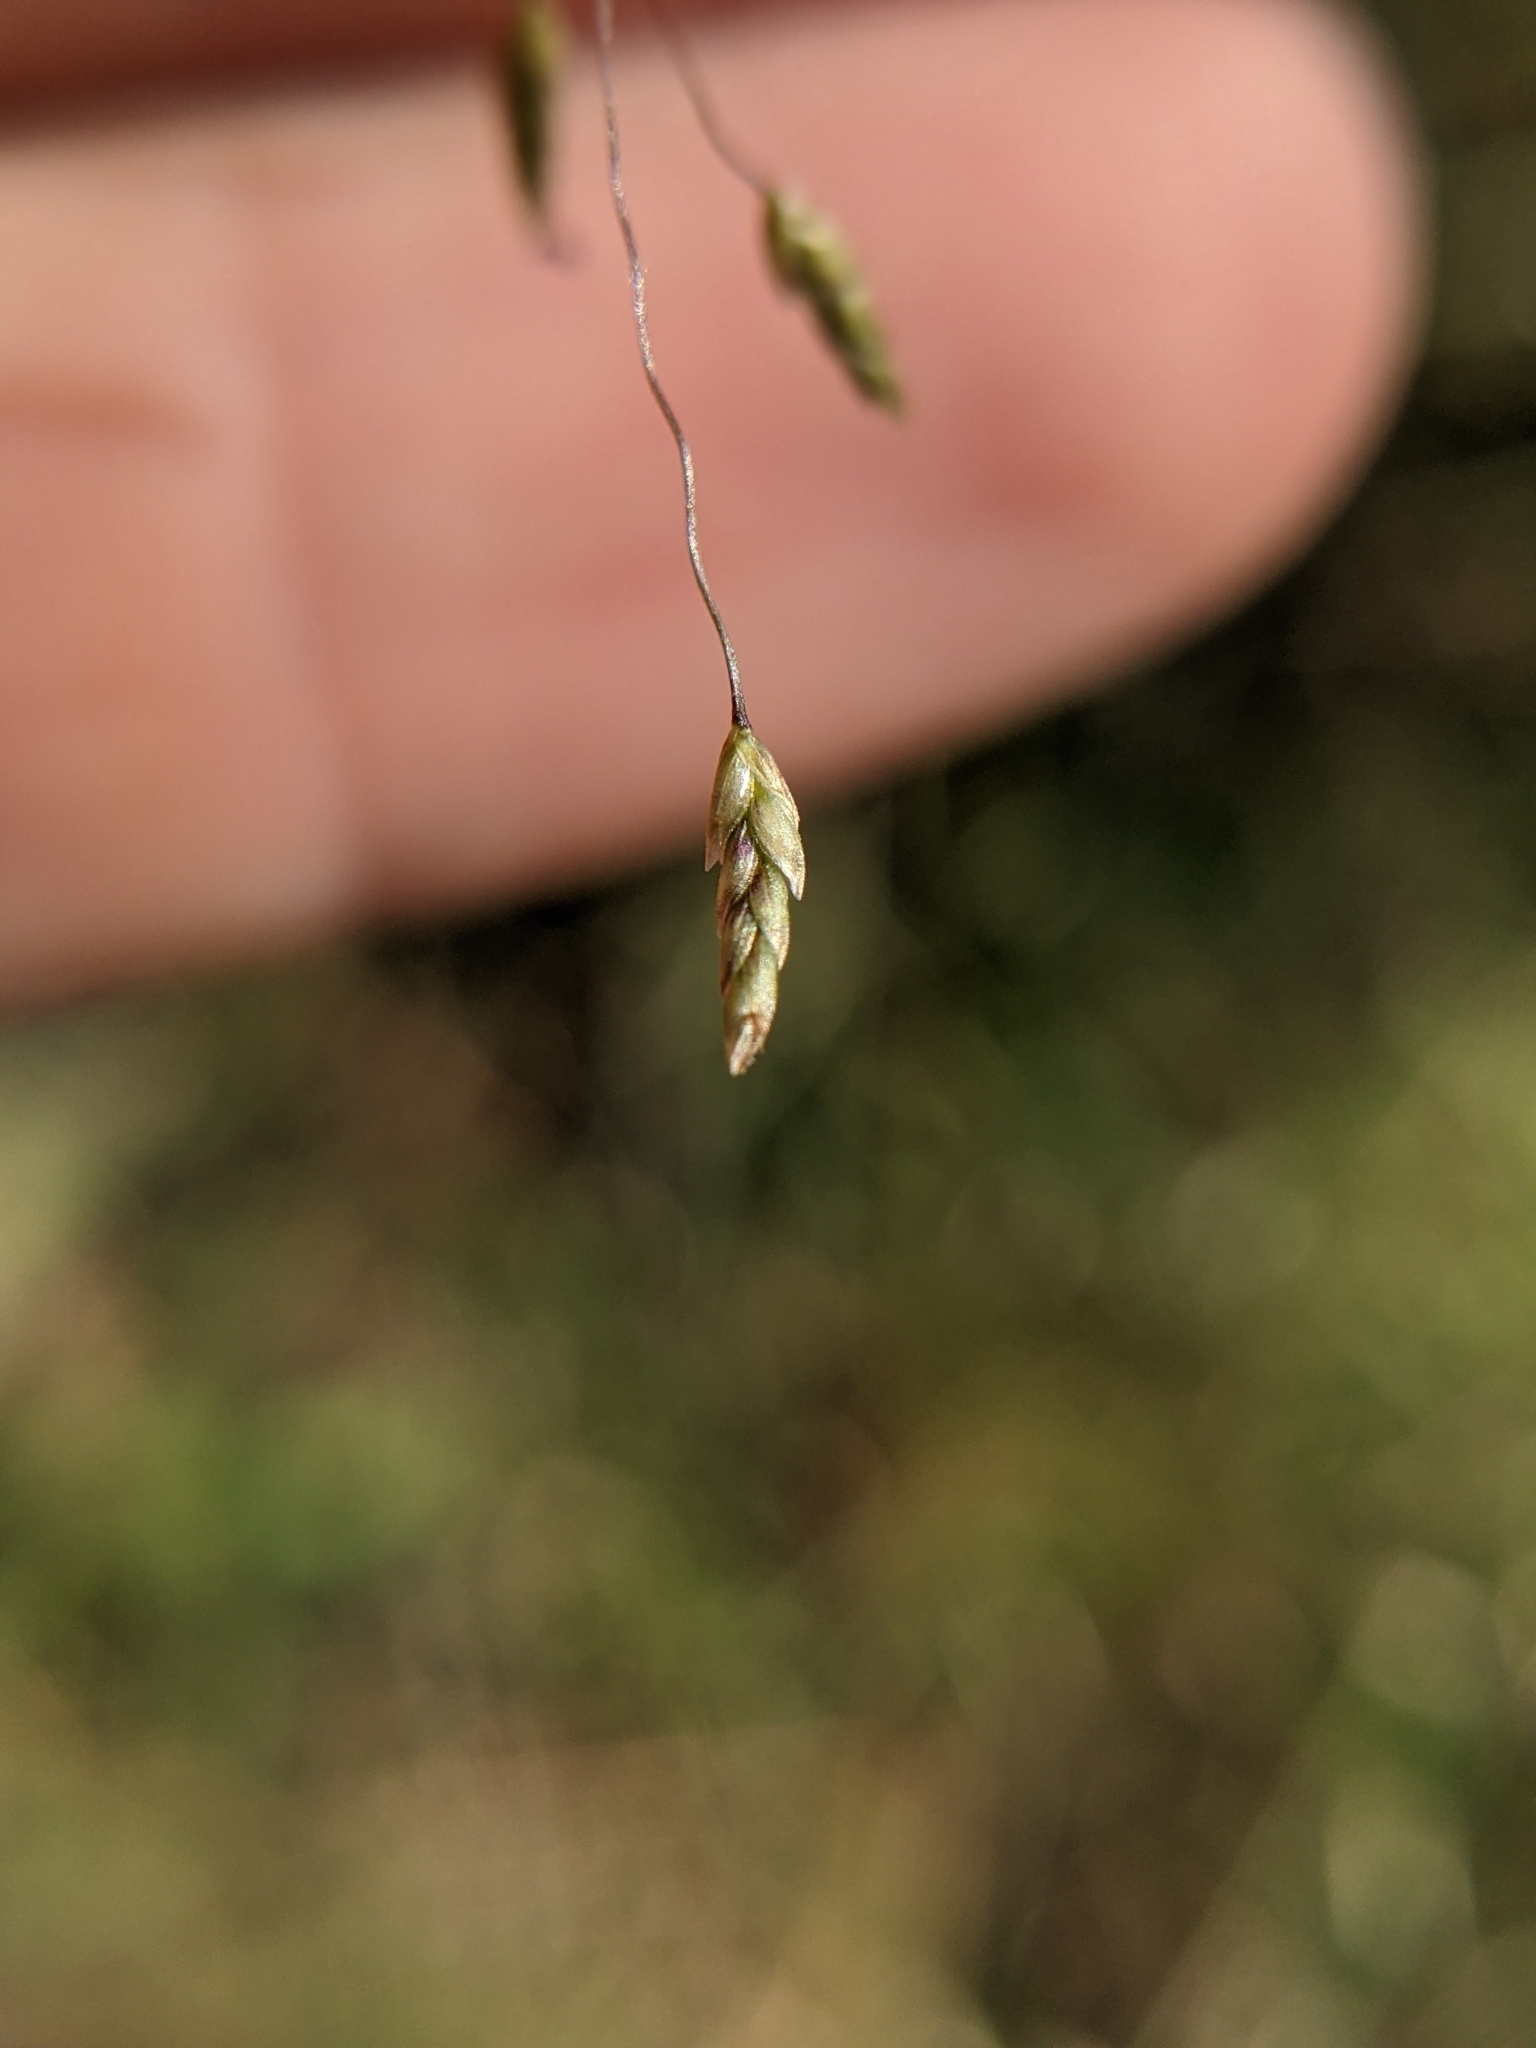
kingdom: Plantae
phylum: Tracheophyta
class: Liliopsida
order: Poales
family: Poaceae
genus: Eragrostis
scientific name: Eragrostis trichodes
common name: Sand love grass
